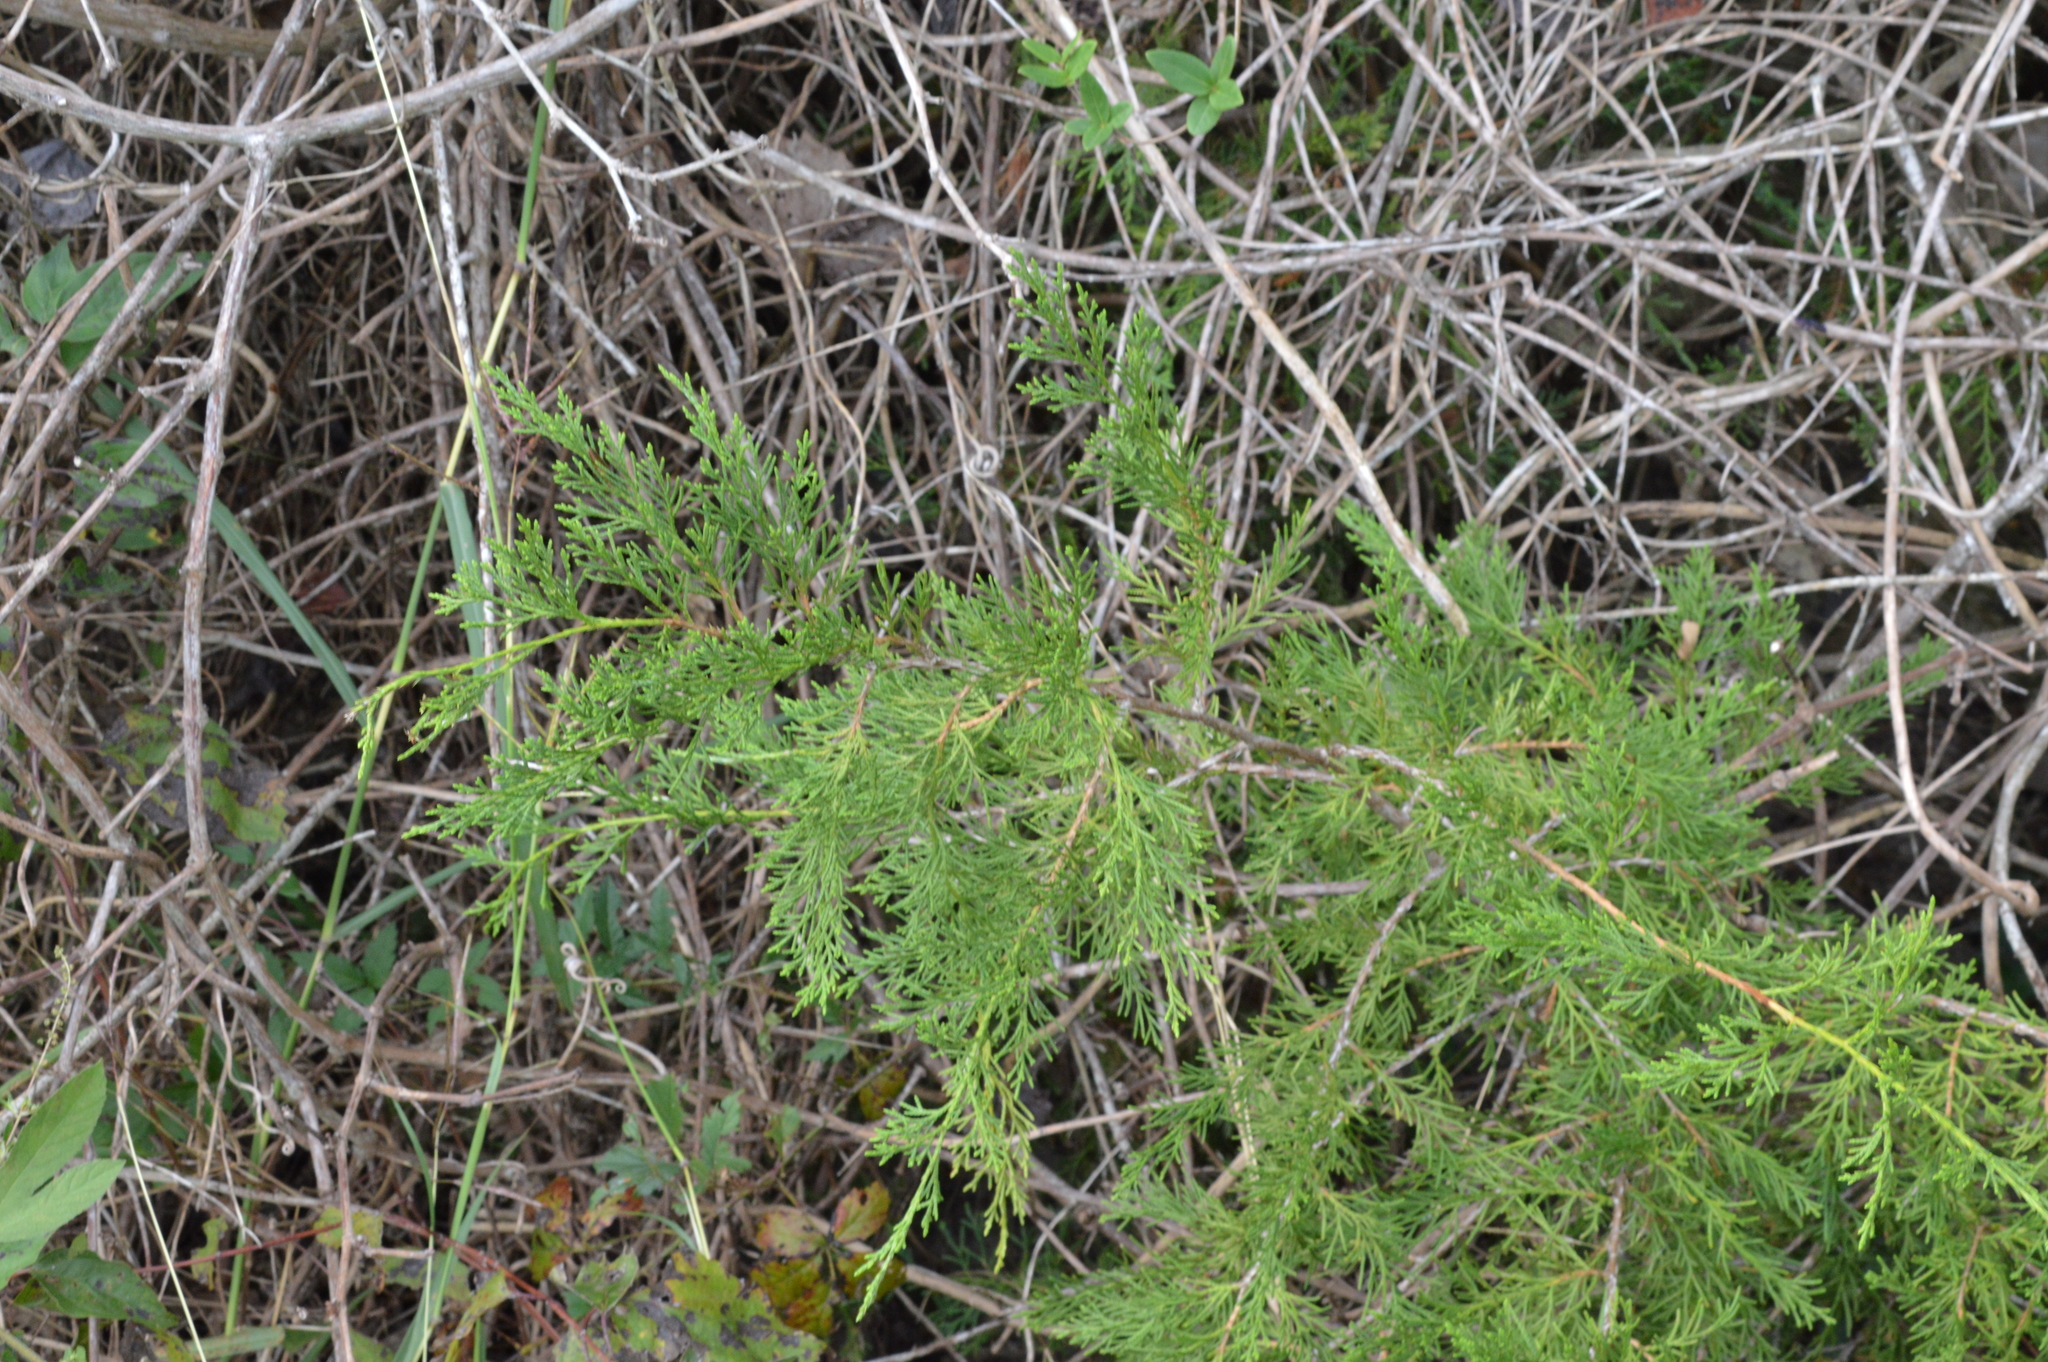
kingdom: Plantae
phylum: Tracheophyta
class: Pinopsida
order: Pinales
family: Cupressaceae
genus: Juniperus
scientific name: Juniperus virginiana
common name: Red juniper
